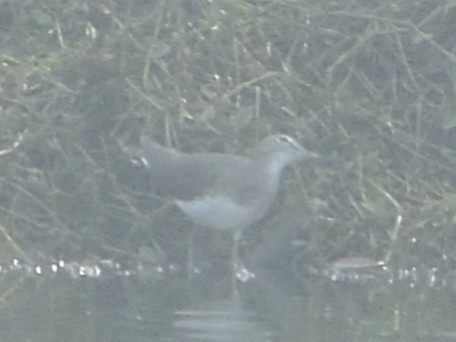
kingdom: Animalia
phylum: Chordata
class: Aves
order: Charadriiformes
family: Scolopacidae
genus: Tringa
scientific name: Tringa ochropus
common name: Green sandpiper
